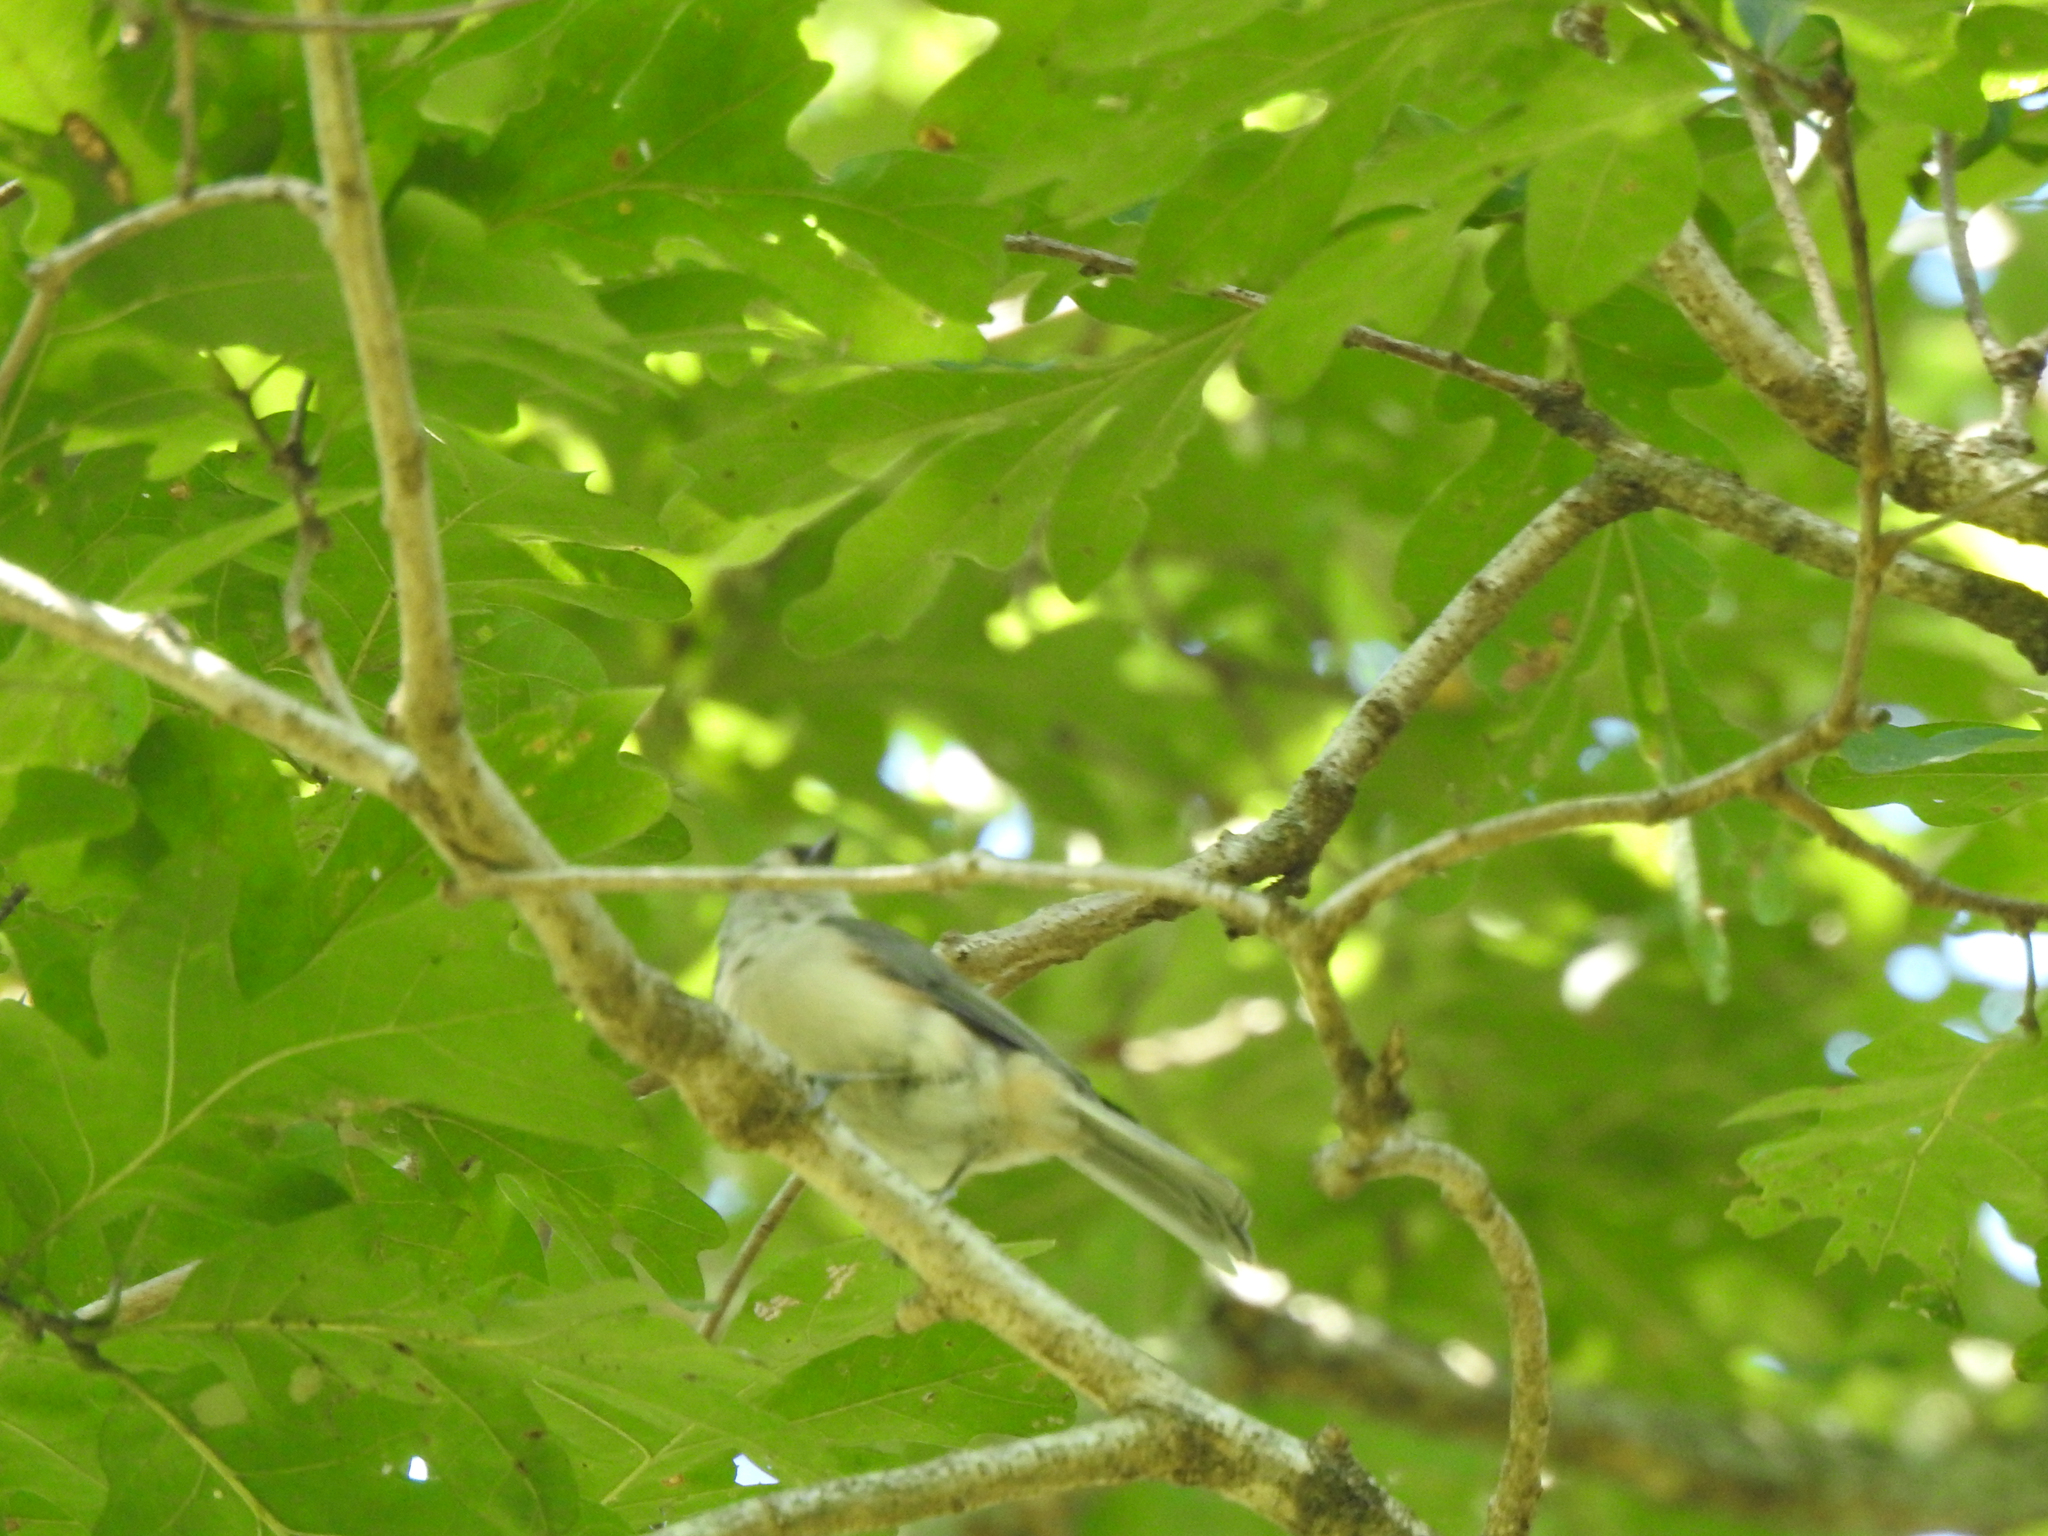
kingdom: Animalia
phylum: Chordata
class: Aves
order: Passeriformes
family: Paridae
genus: Baeolophus
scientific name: Baeolophus bicolor
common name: Tufted titmouse
